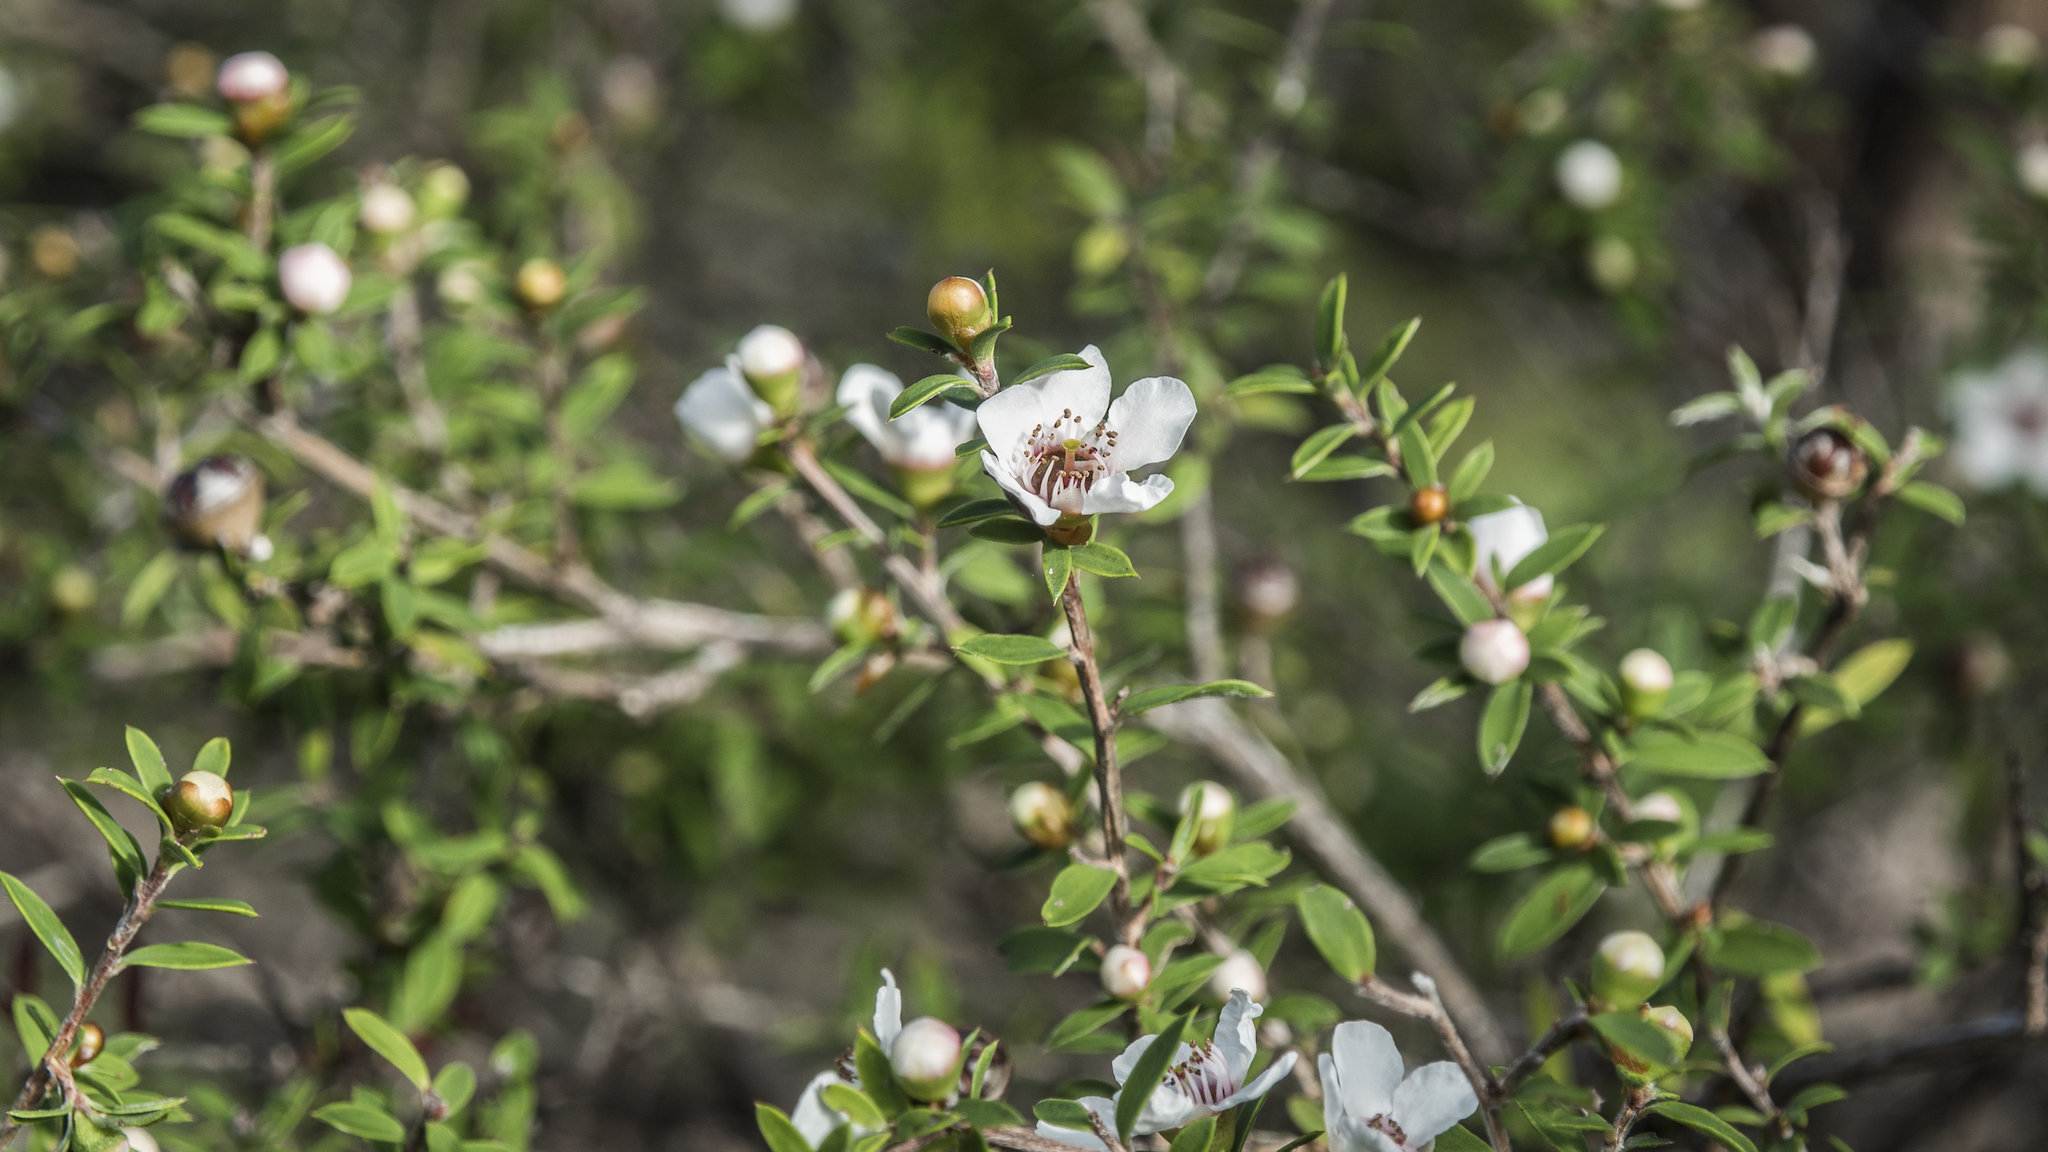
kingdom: Plantae
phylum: Tracheophyta
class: Magnoliopsida
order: Myrtales
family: Myrtaceae
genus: Leptospermum
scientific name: Leptospermum scoparium
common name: Broom tea-tree
